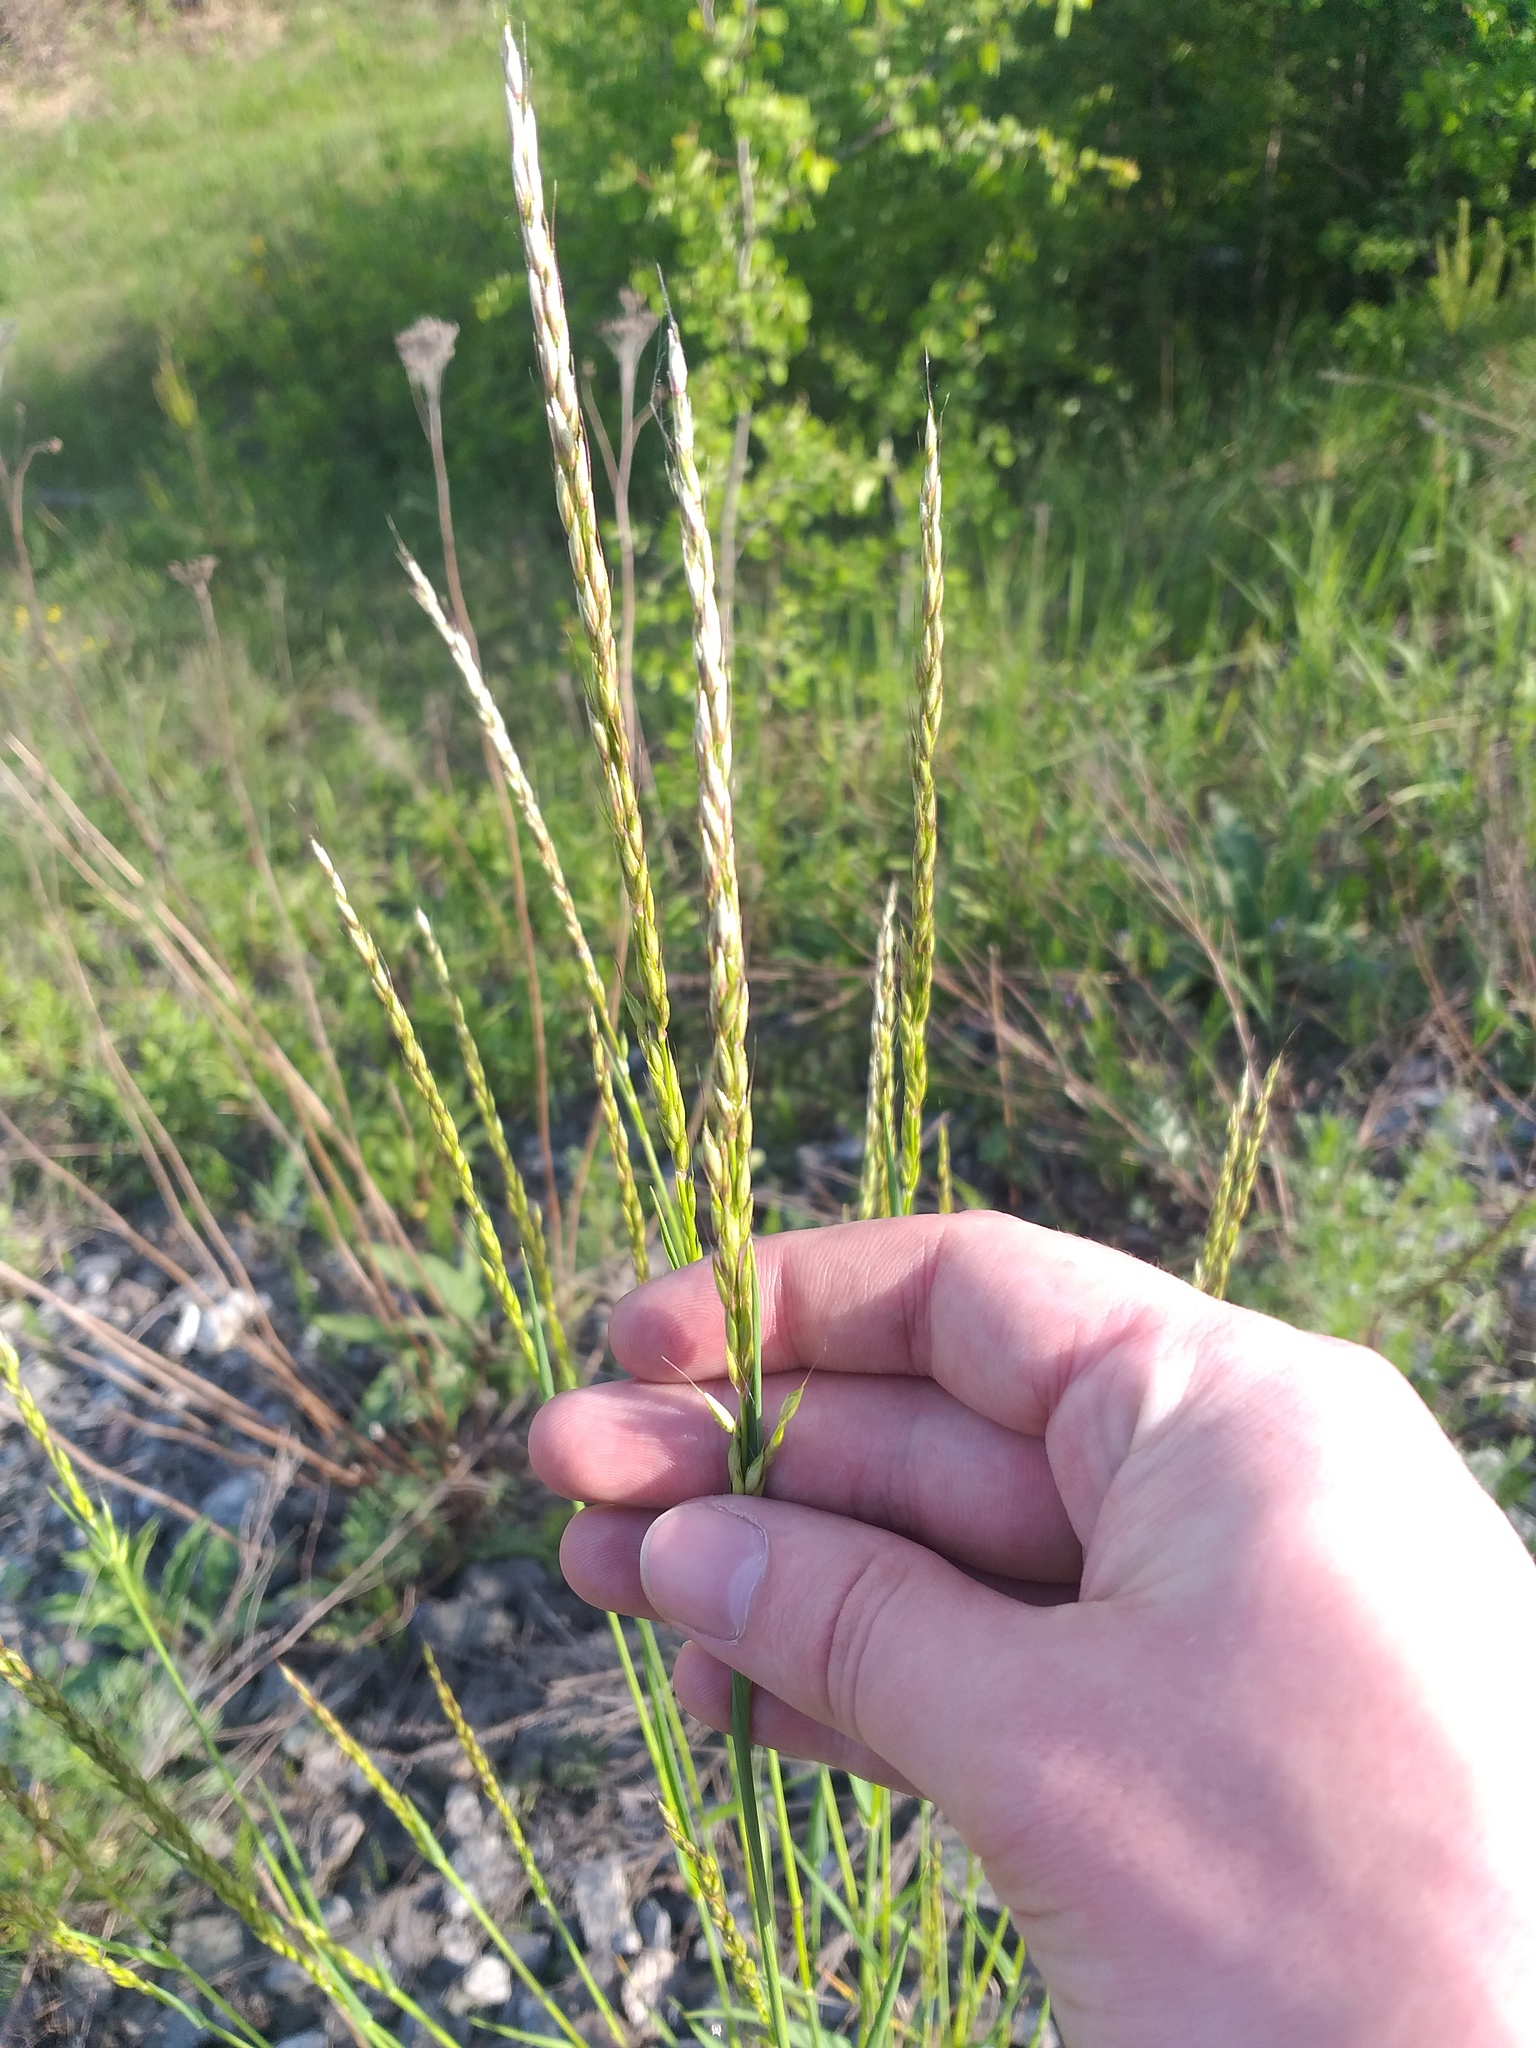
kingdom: Plantae
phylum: Tracheophyta
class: Liliopsida
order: Poales
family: Poaceae
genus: Arrhenatherum
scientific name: Arrhenatherum elatius
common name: Tall oatgrass
